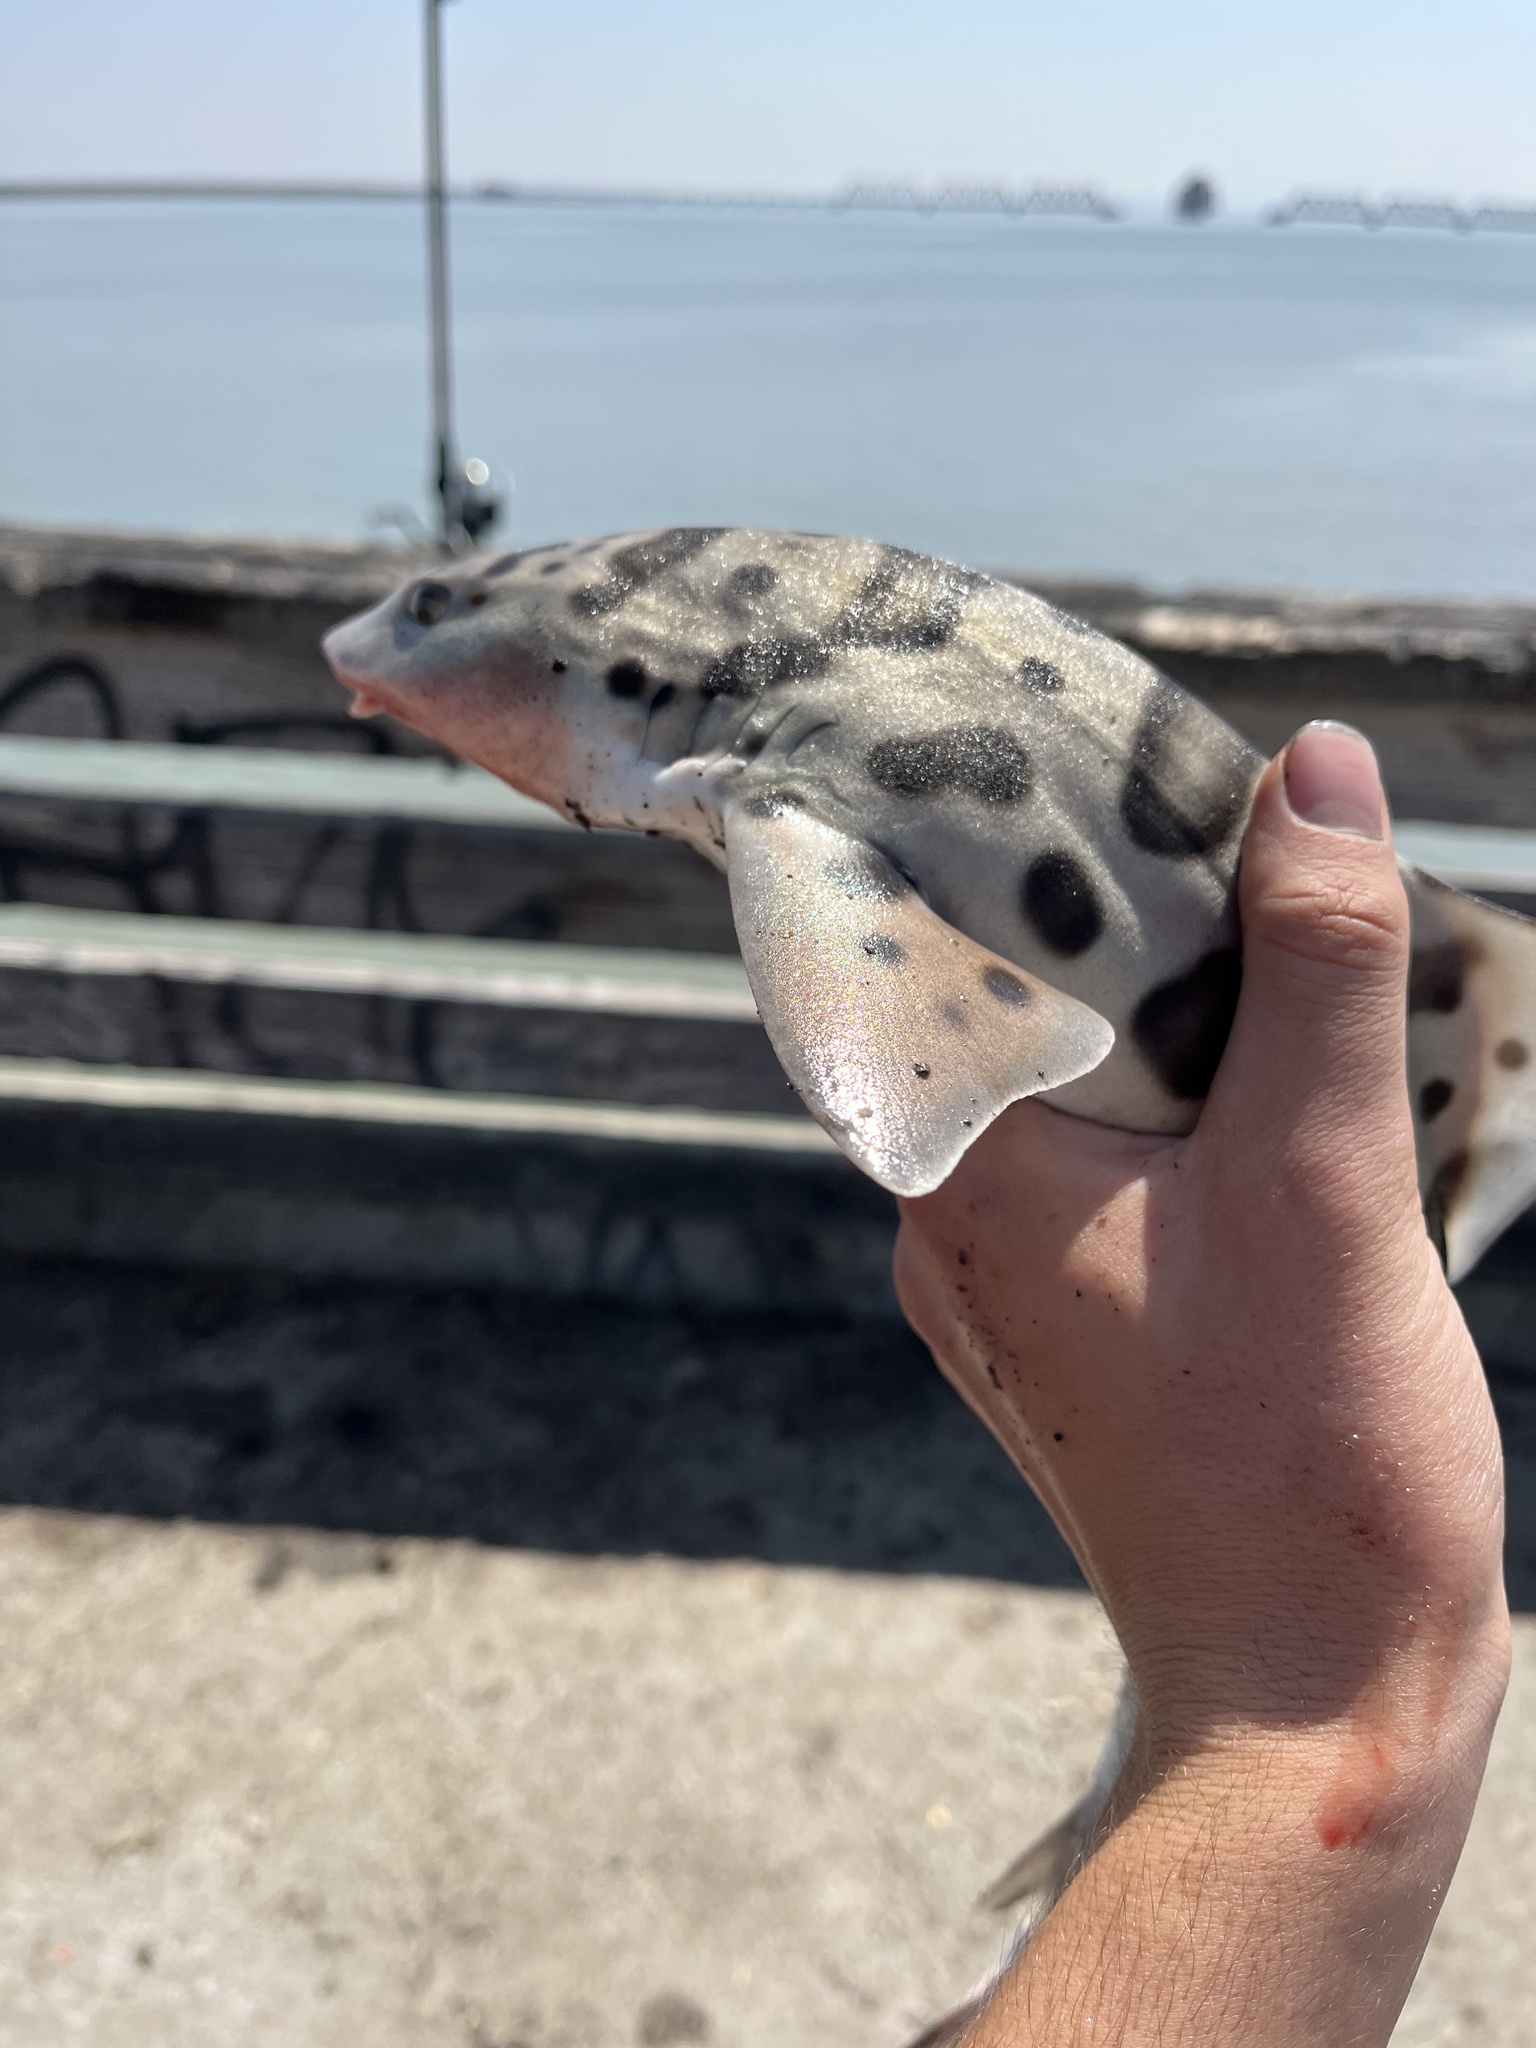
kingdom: Animalia
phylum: Chordata
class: Elasmobranchii
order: Carcharhiniformes
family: Triakidae
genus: Triakis
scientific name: Triakis semifasciata
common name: Leopard shark
